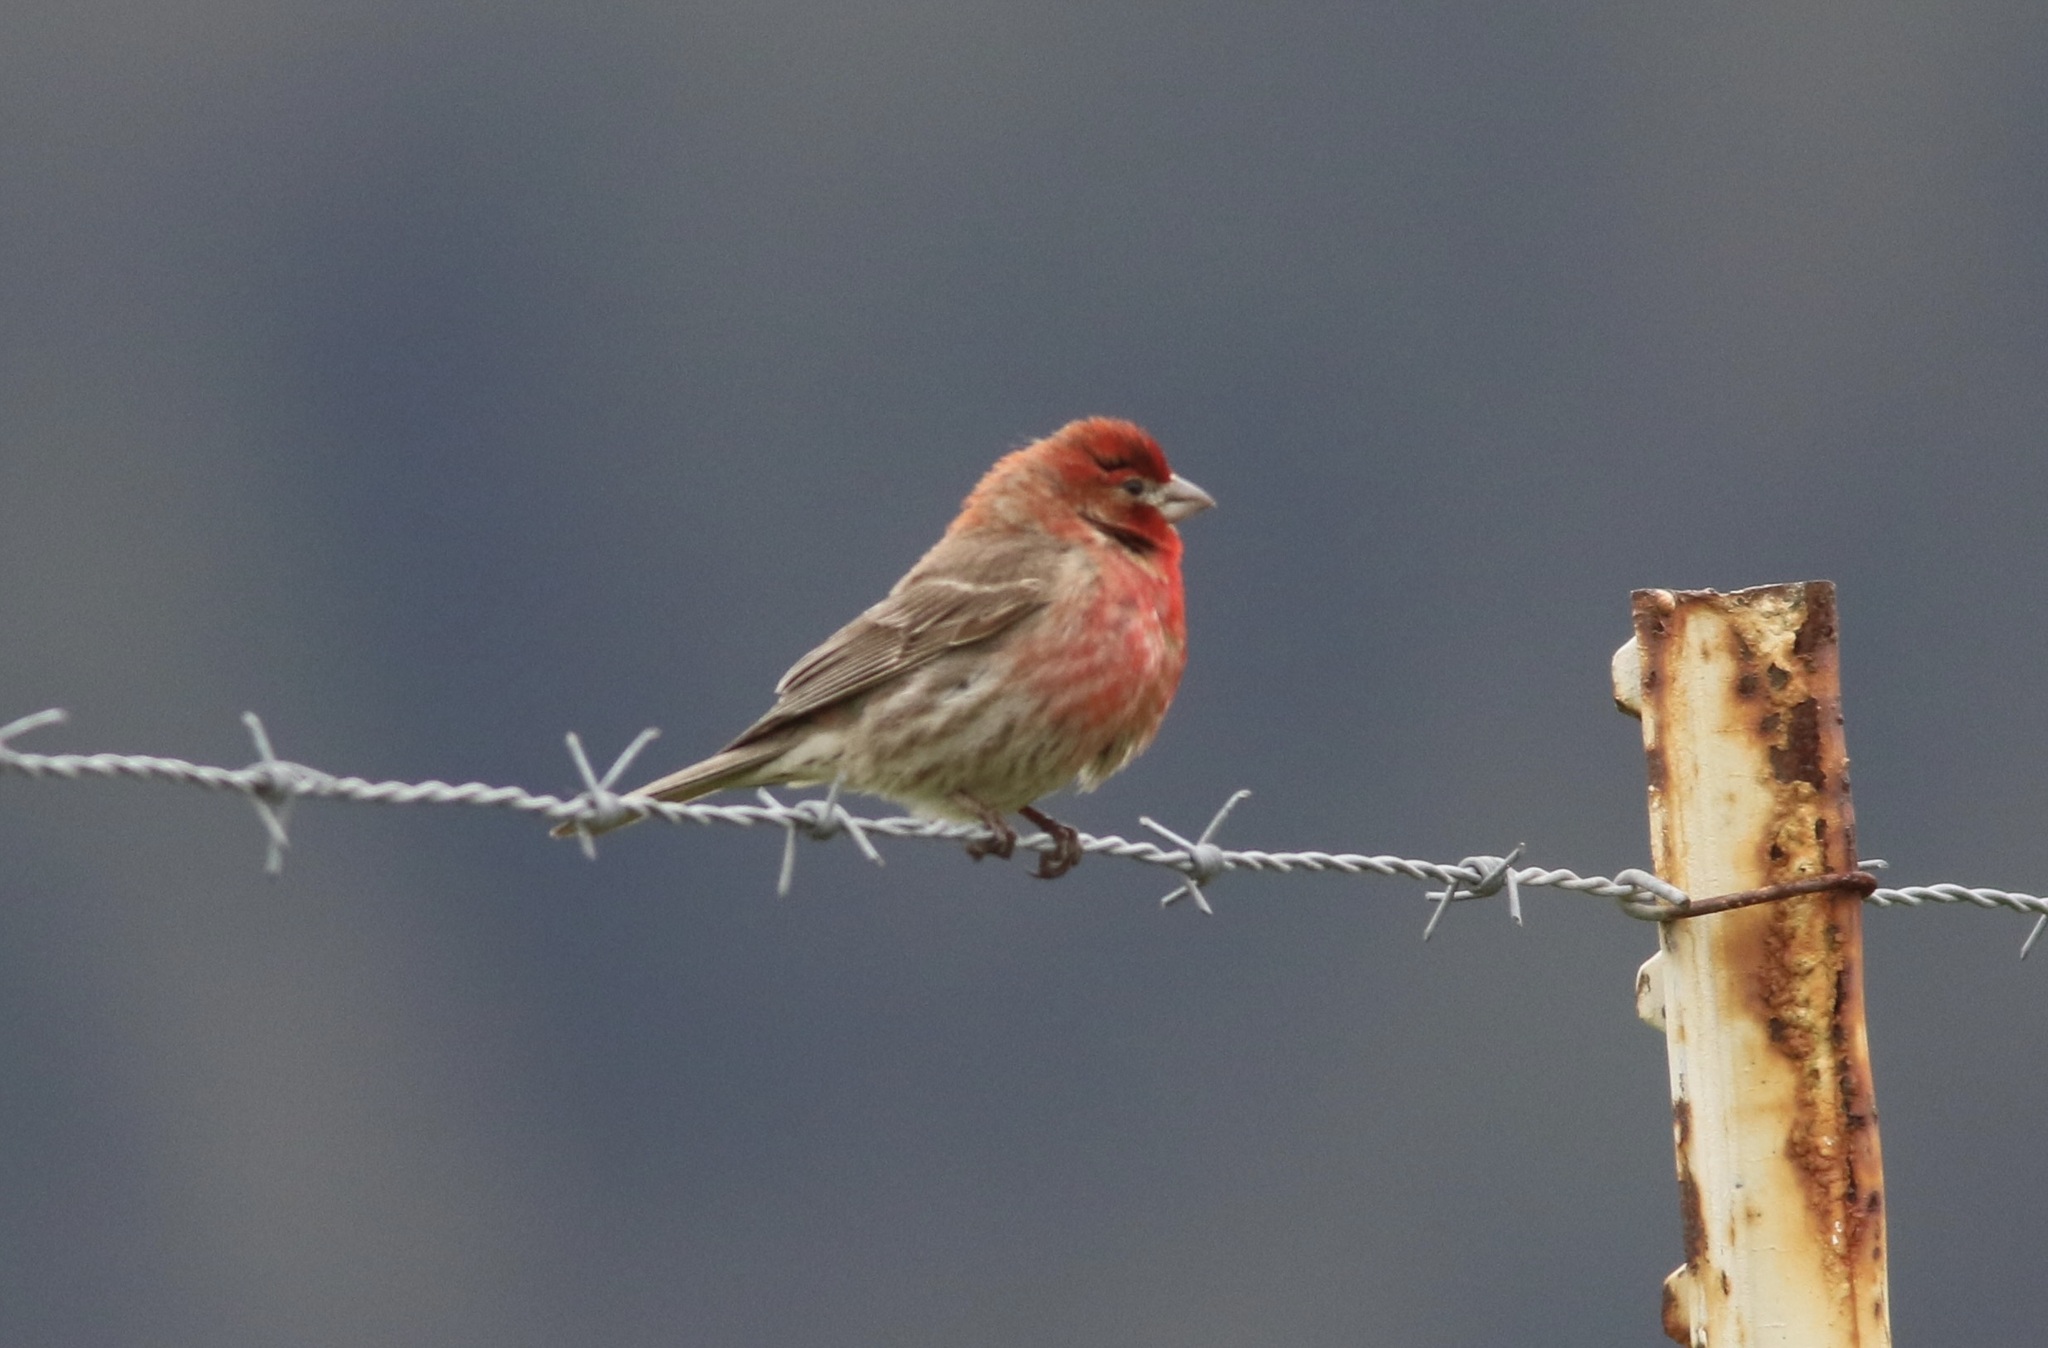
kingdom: Animalia
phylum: Chordata
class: Aves
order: Passeriformes
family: Fringillidae
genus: Haemorhous
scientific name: Haemorhous mexicanus
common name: House finch
